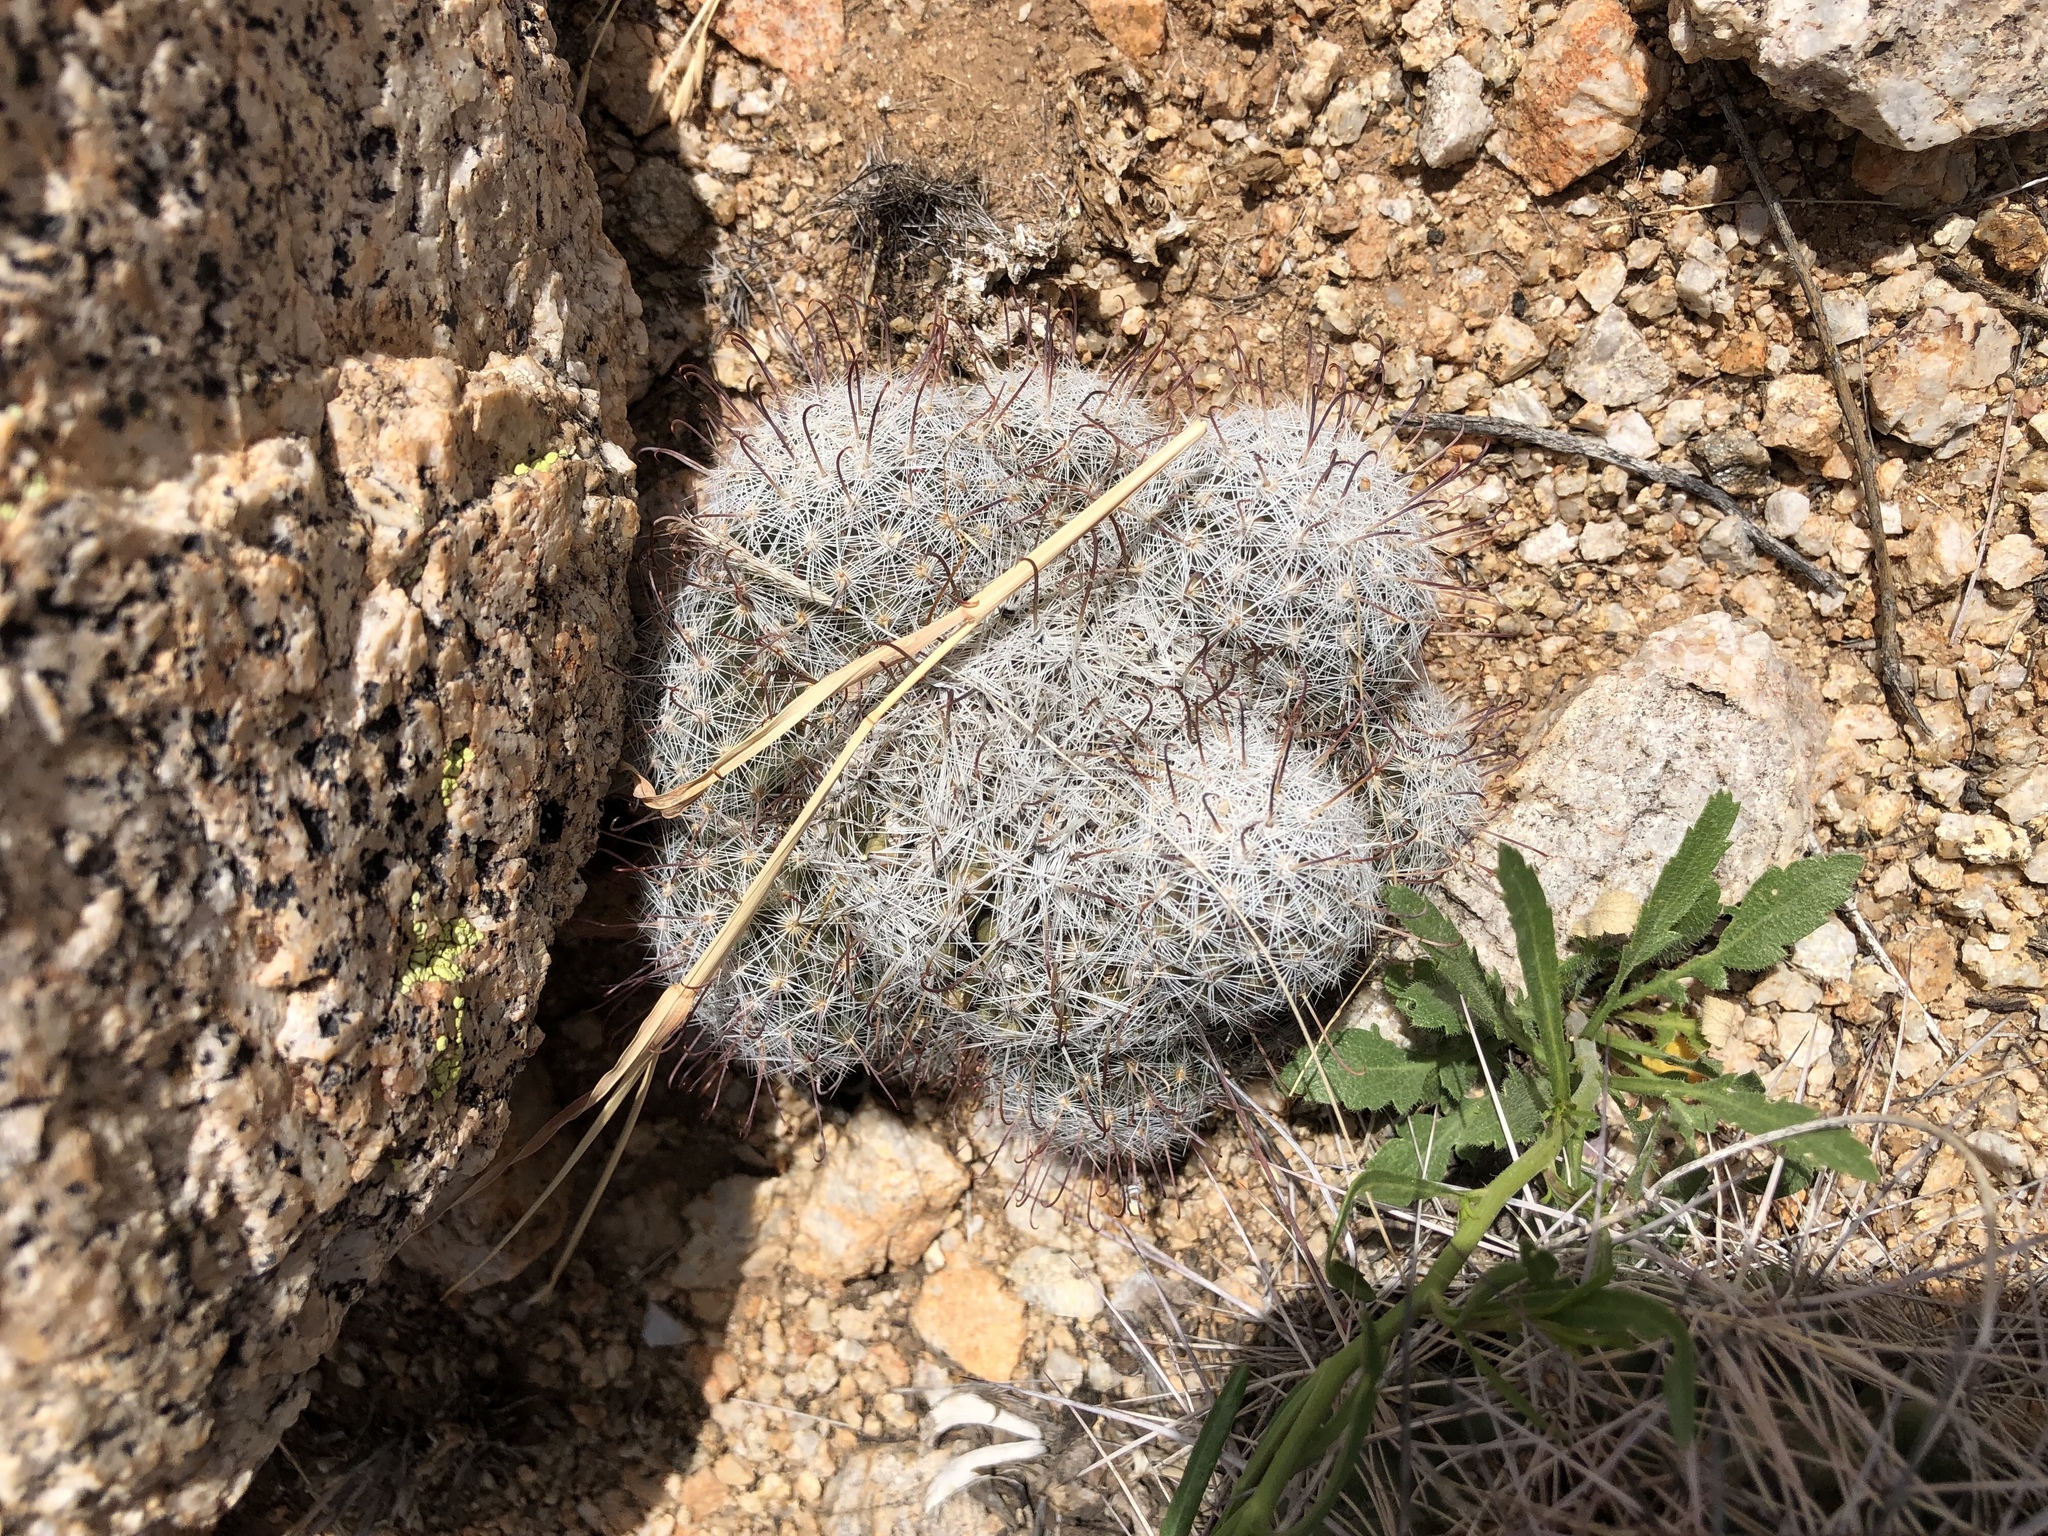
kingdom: Plantae
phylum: Tracheophyta
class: Magnoliopsida
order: Caryophyllales
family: Cactaceae
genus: Cochemiea
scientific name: Cochemiea grahamii
